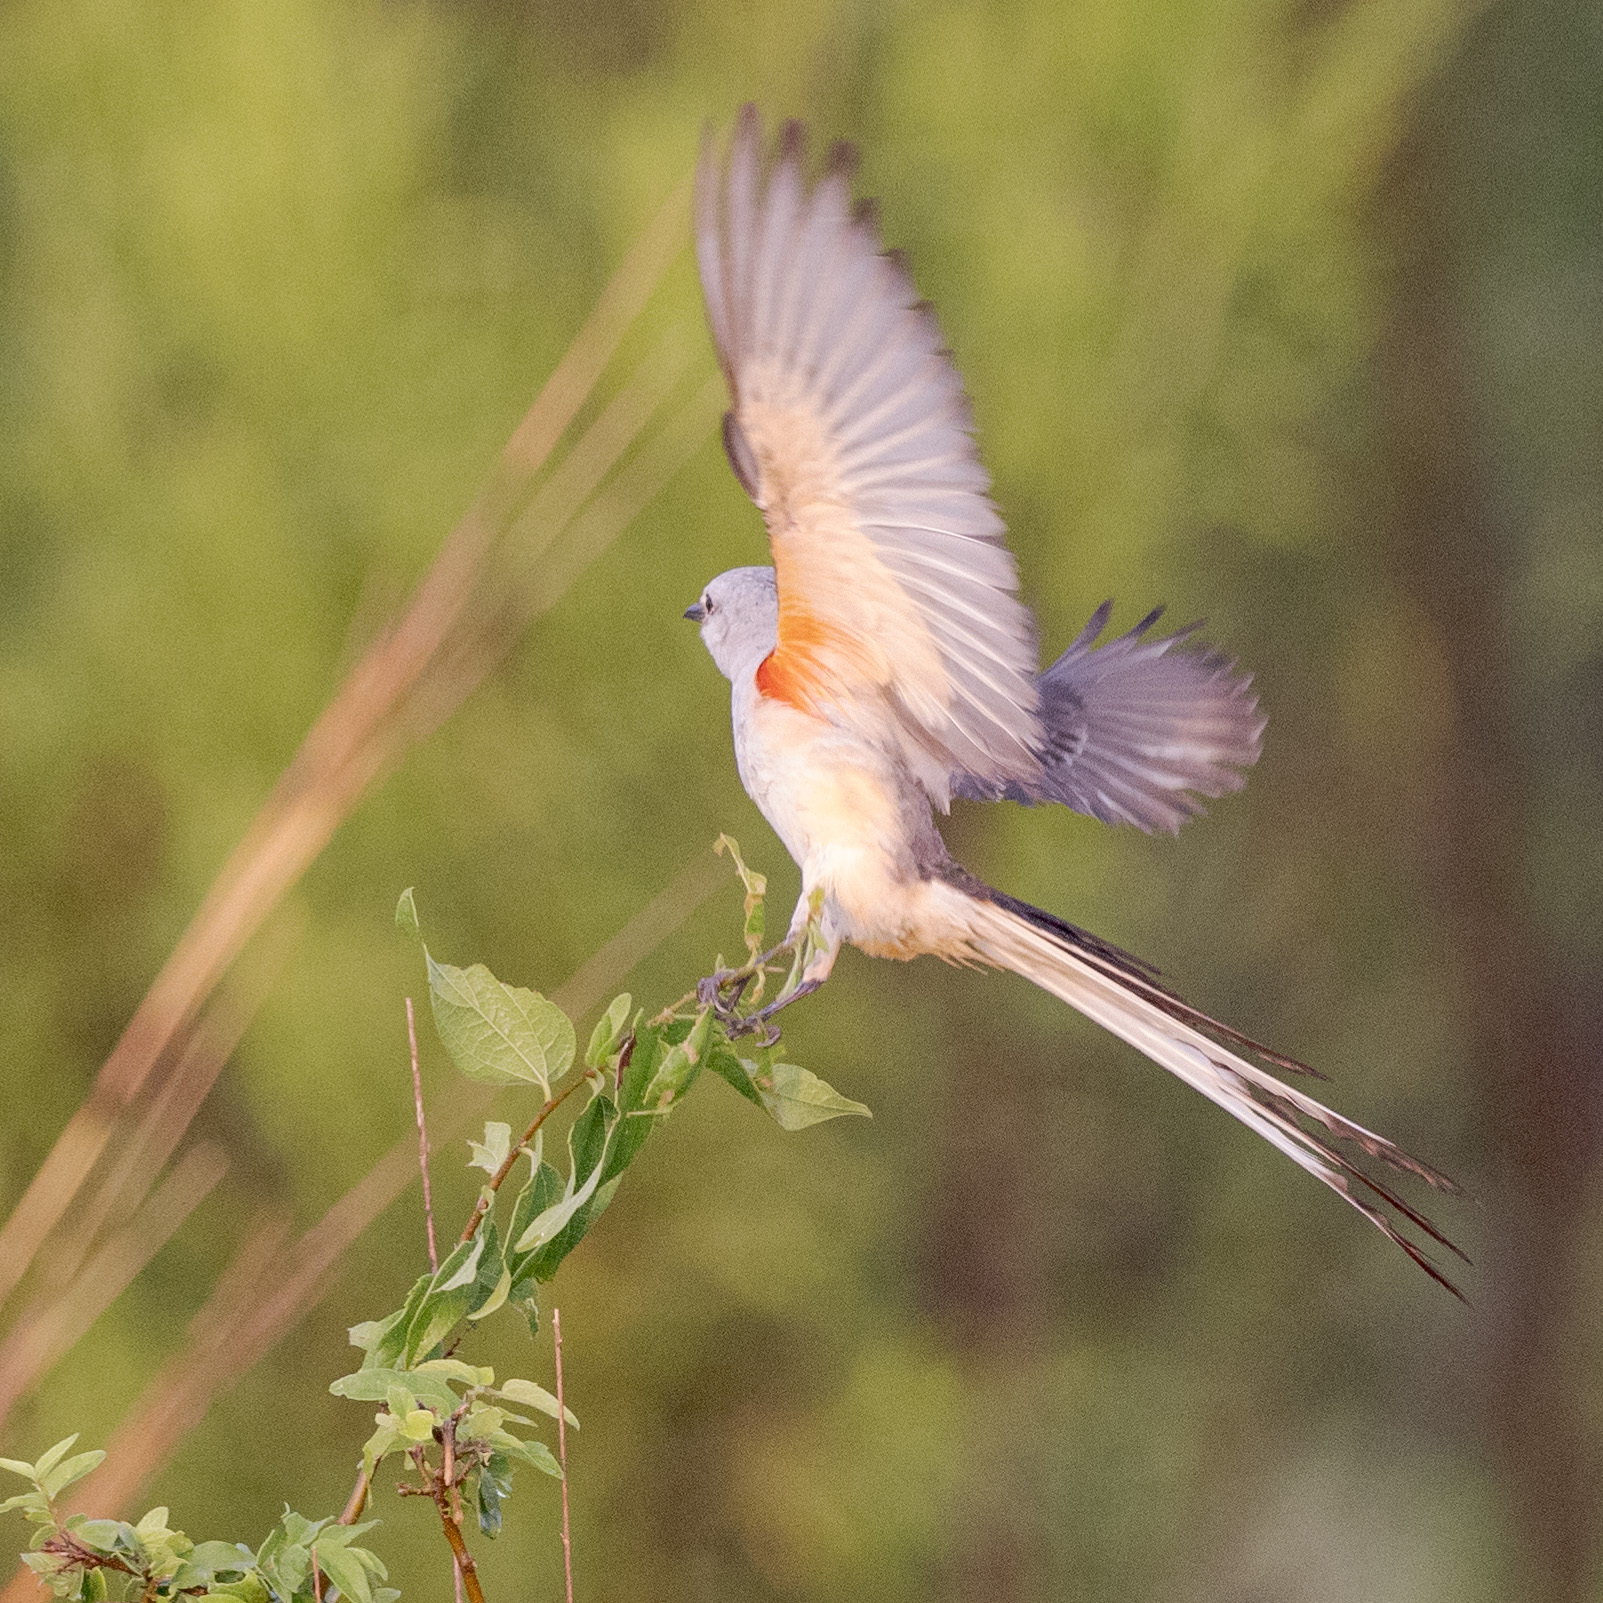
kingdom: Animalia
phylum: Chordata
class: Aves
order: Passeriformes
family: Tyrannidae
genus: Tyrannus
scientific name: Tyrannus forficatus
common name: Scissor-tailed flycatcher
